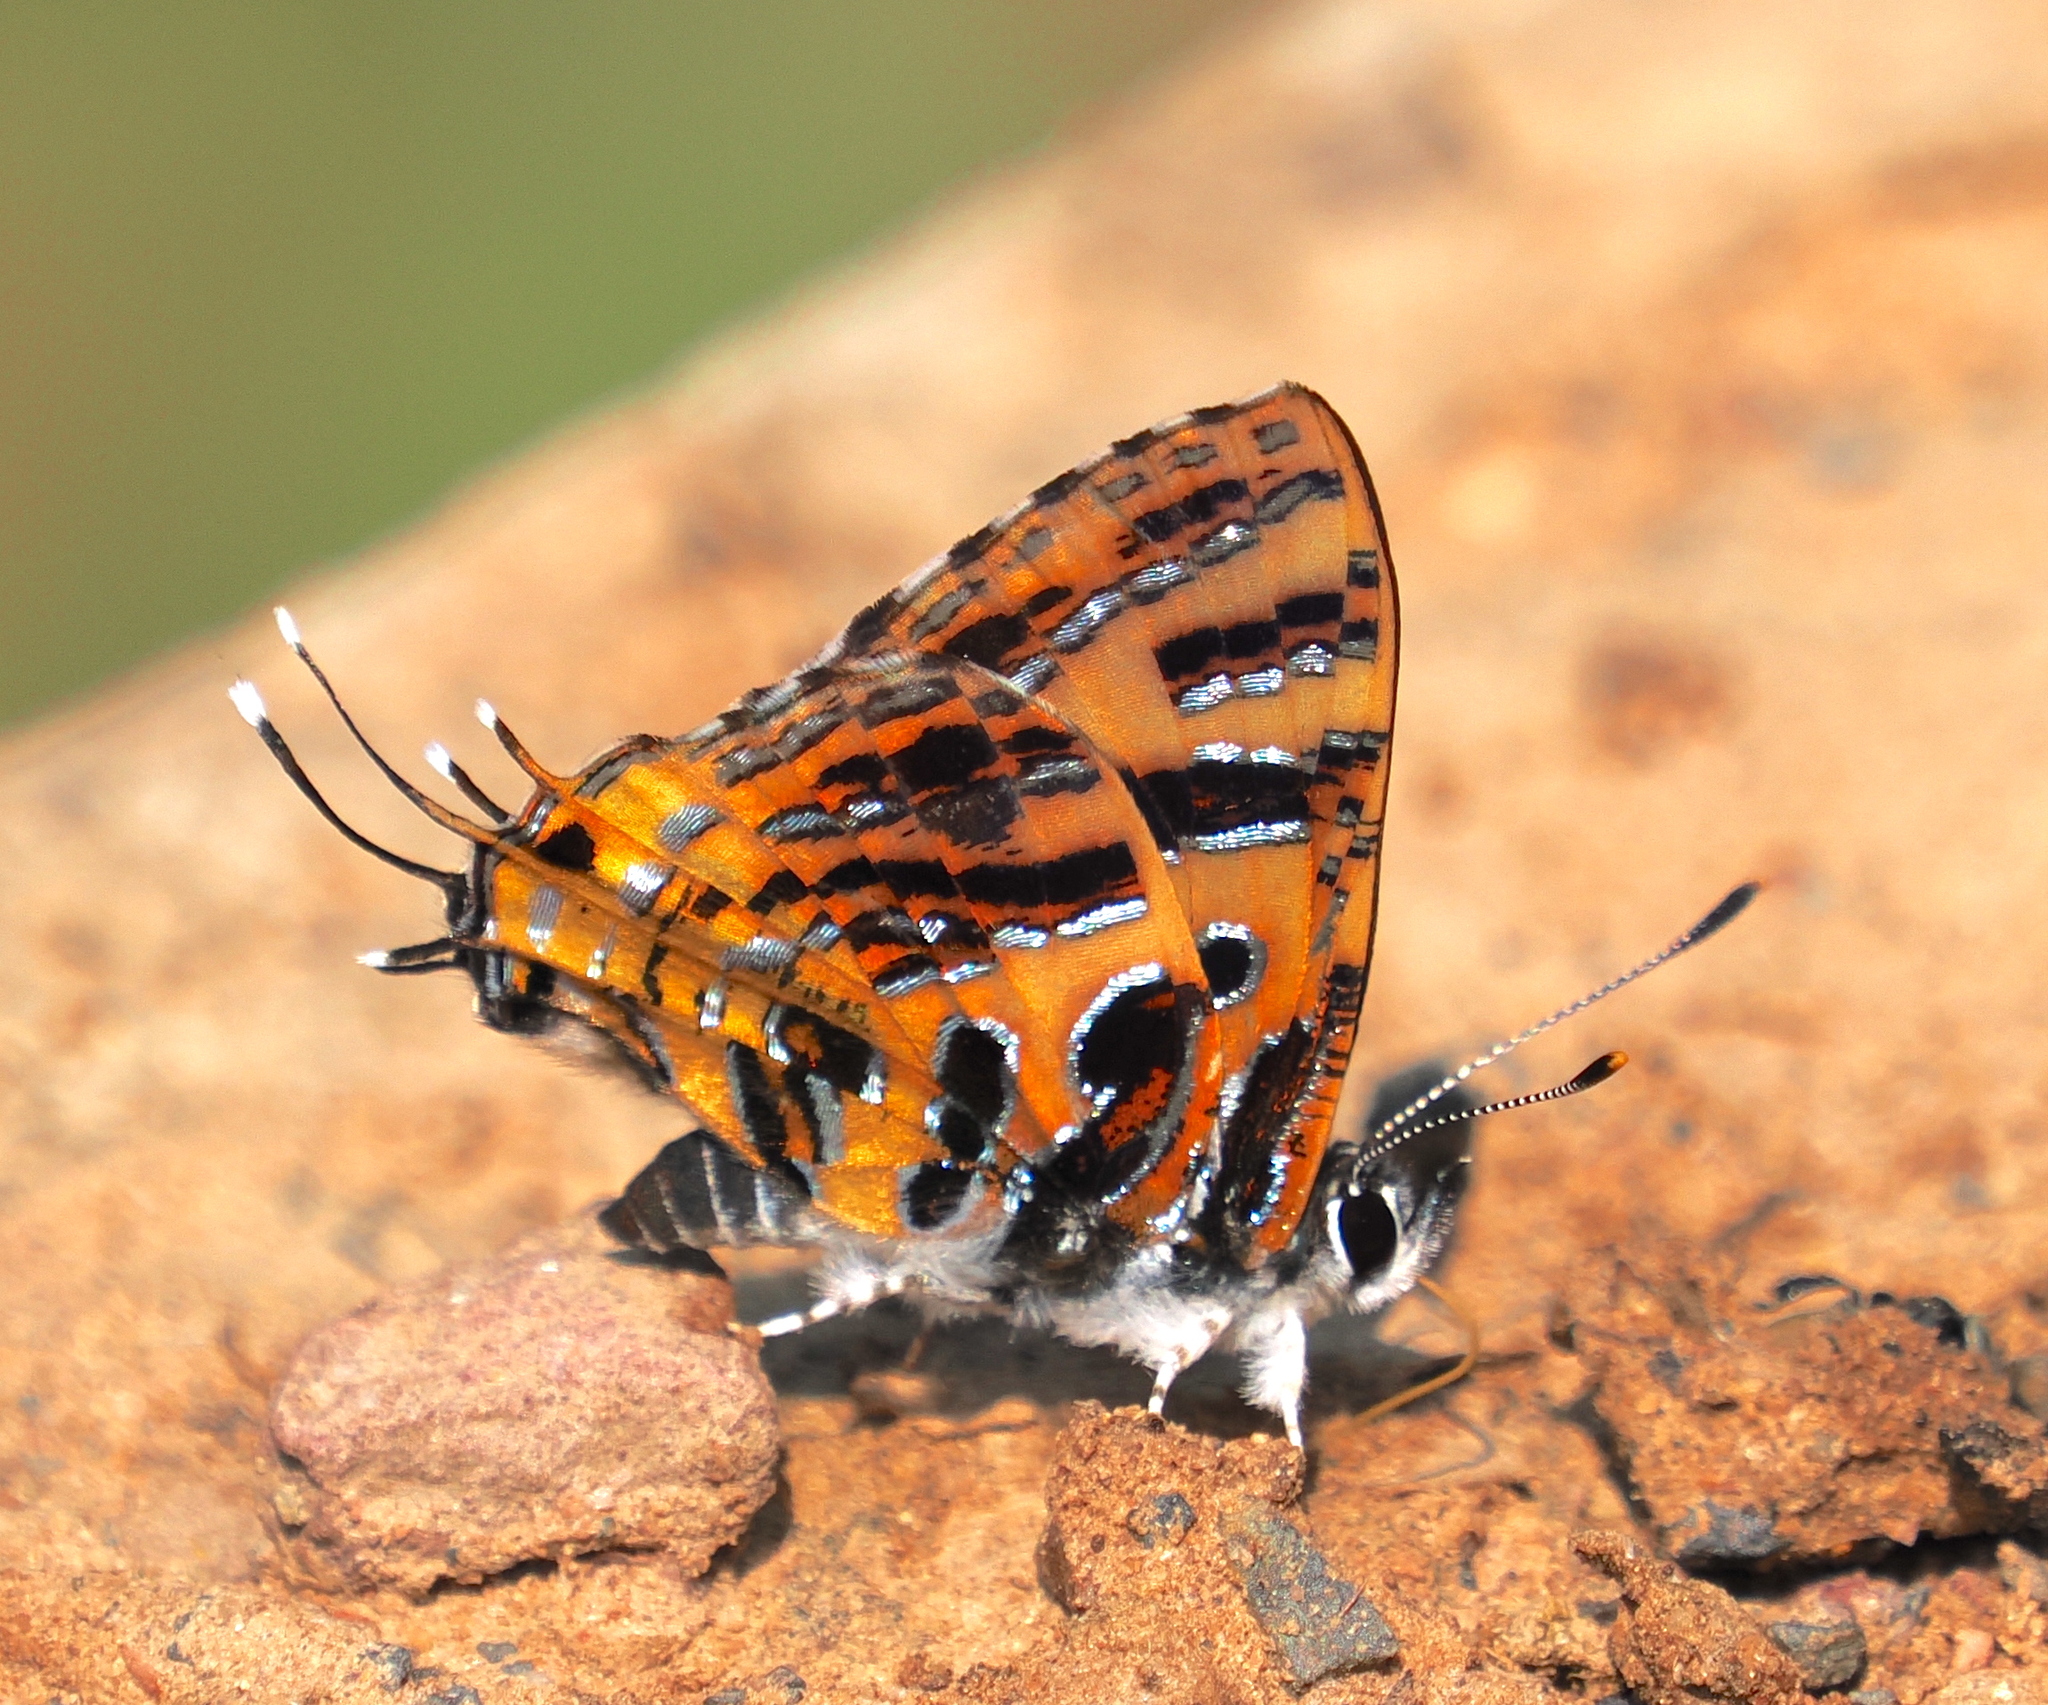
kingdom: Animalia
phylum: Arthropoda
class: Insecta
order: Lepidoptera
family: Lycaenidae
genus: Catapaecilma
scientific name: Catapaecilma subochrea
